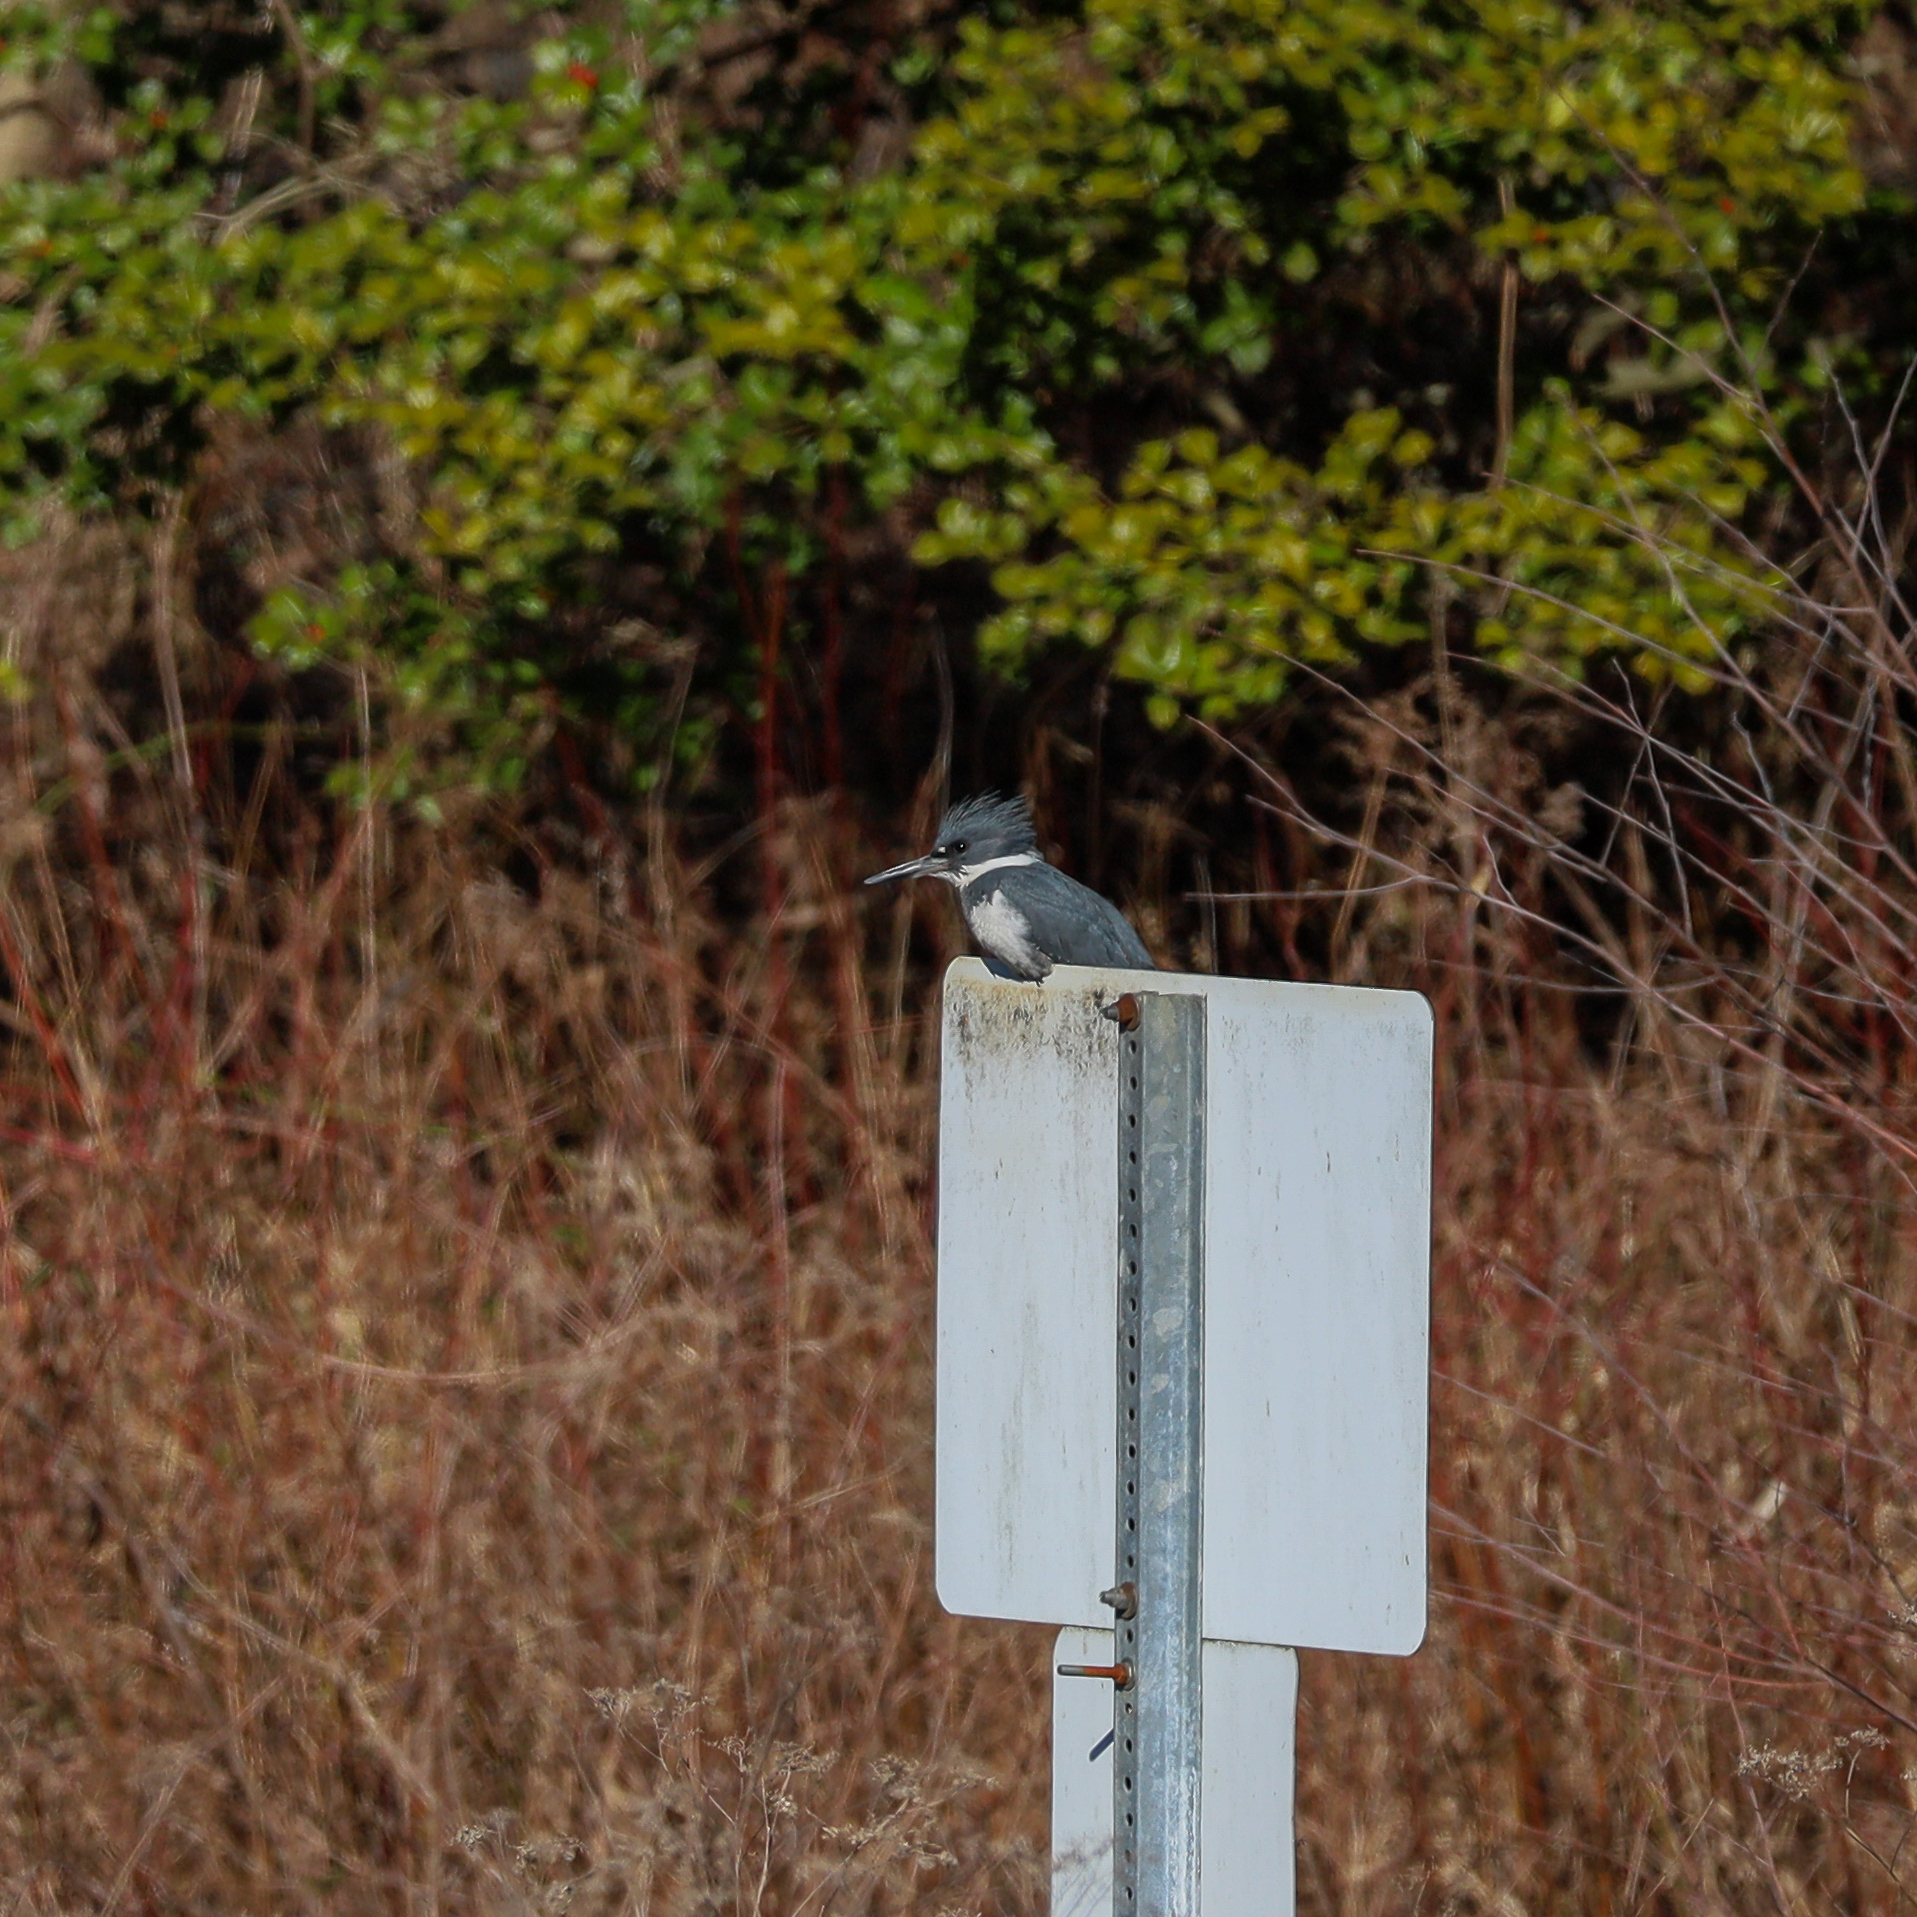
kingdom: Animalia
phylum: Chordata
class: Aves
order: Coraciiformes
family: Alcedinidae
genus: Megaceryle
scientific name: Megaceryle alcyon
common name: Belted kingfisher
